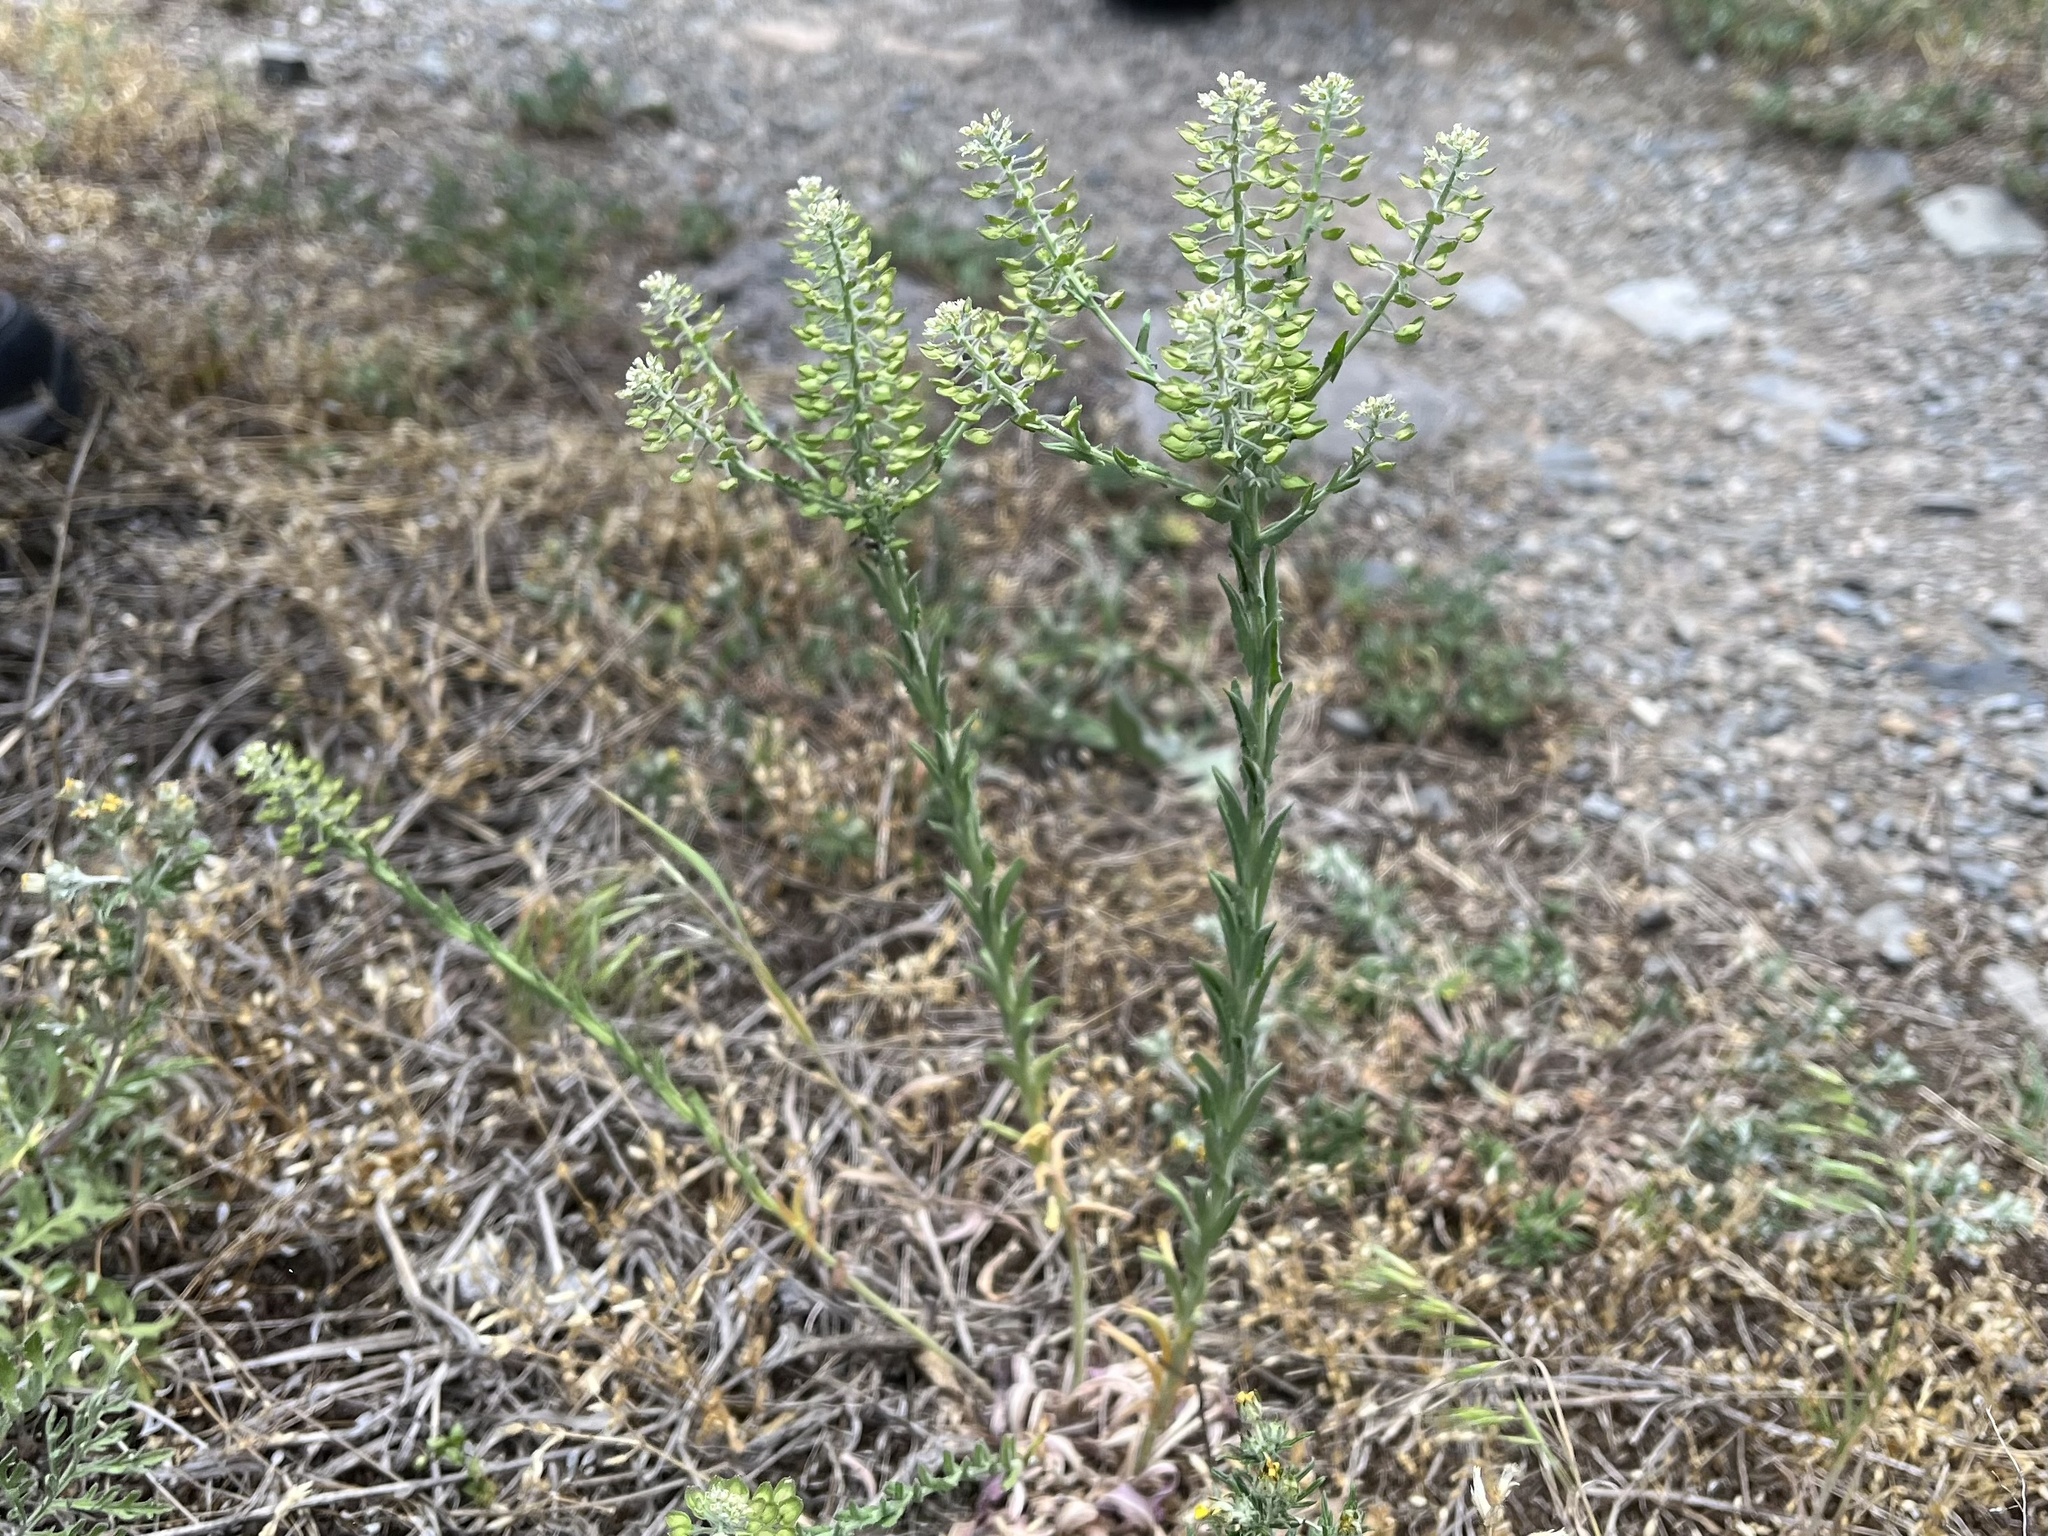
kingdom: Plantae
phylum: Tracheophyta
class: Magnoliopsida
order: Brassicales
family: Brassicaceae
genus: Lepidium
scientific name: Lepidium campestre
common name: Field pepperwort
